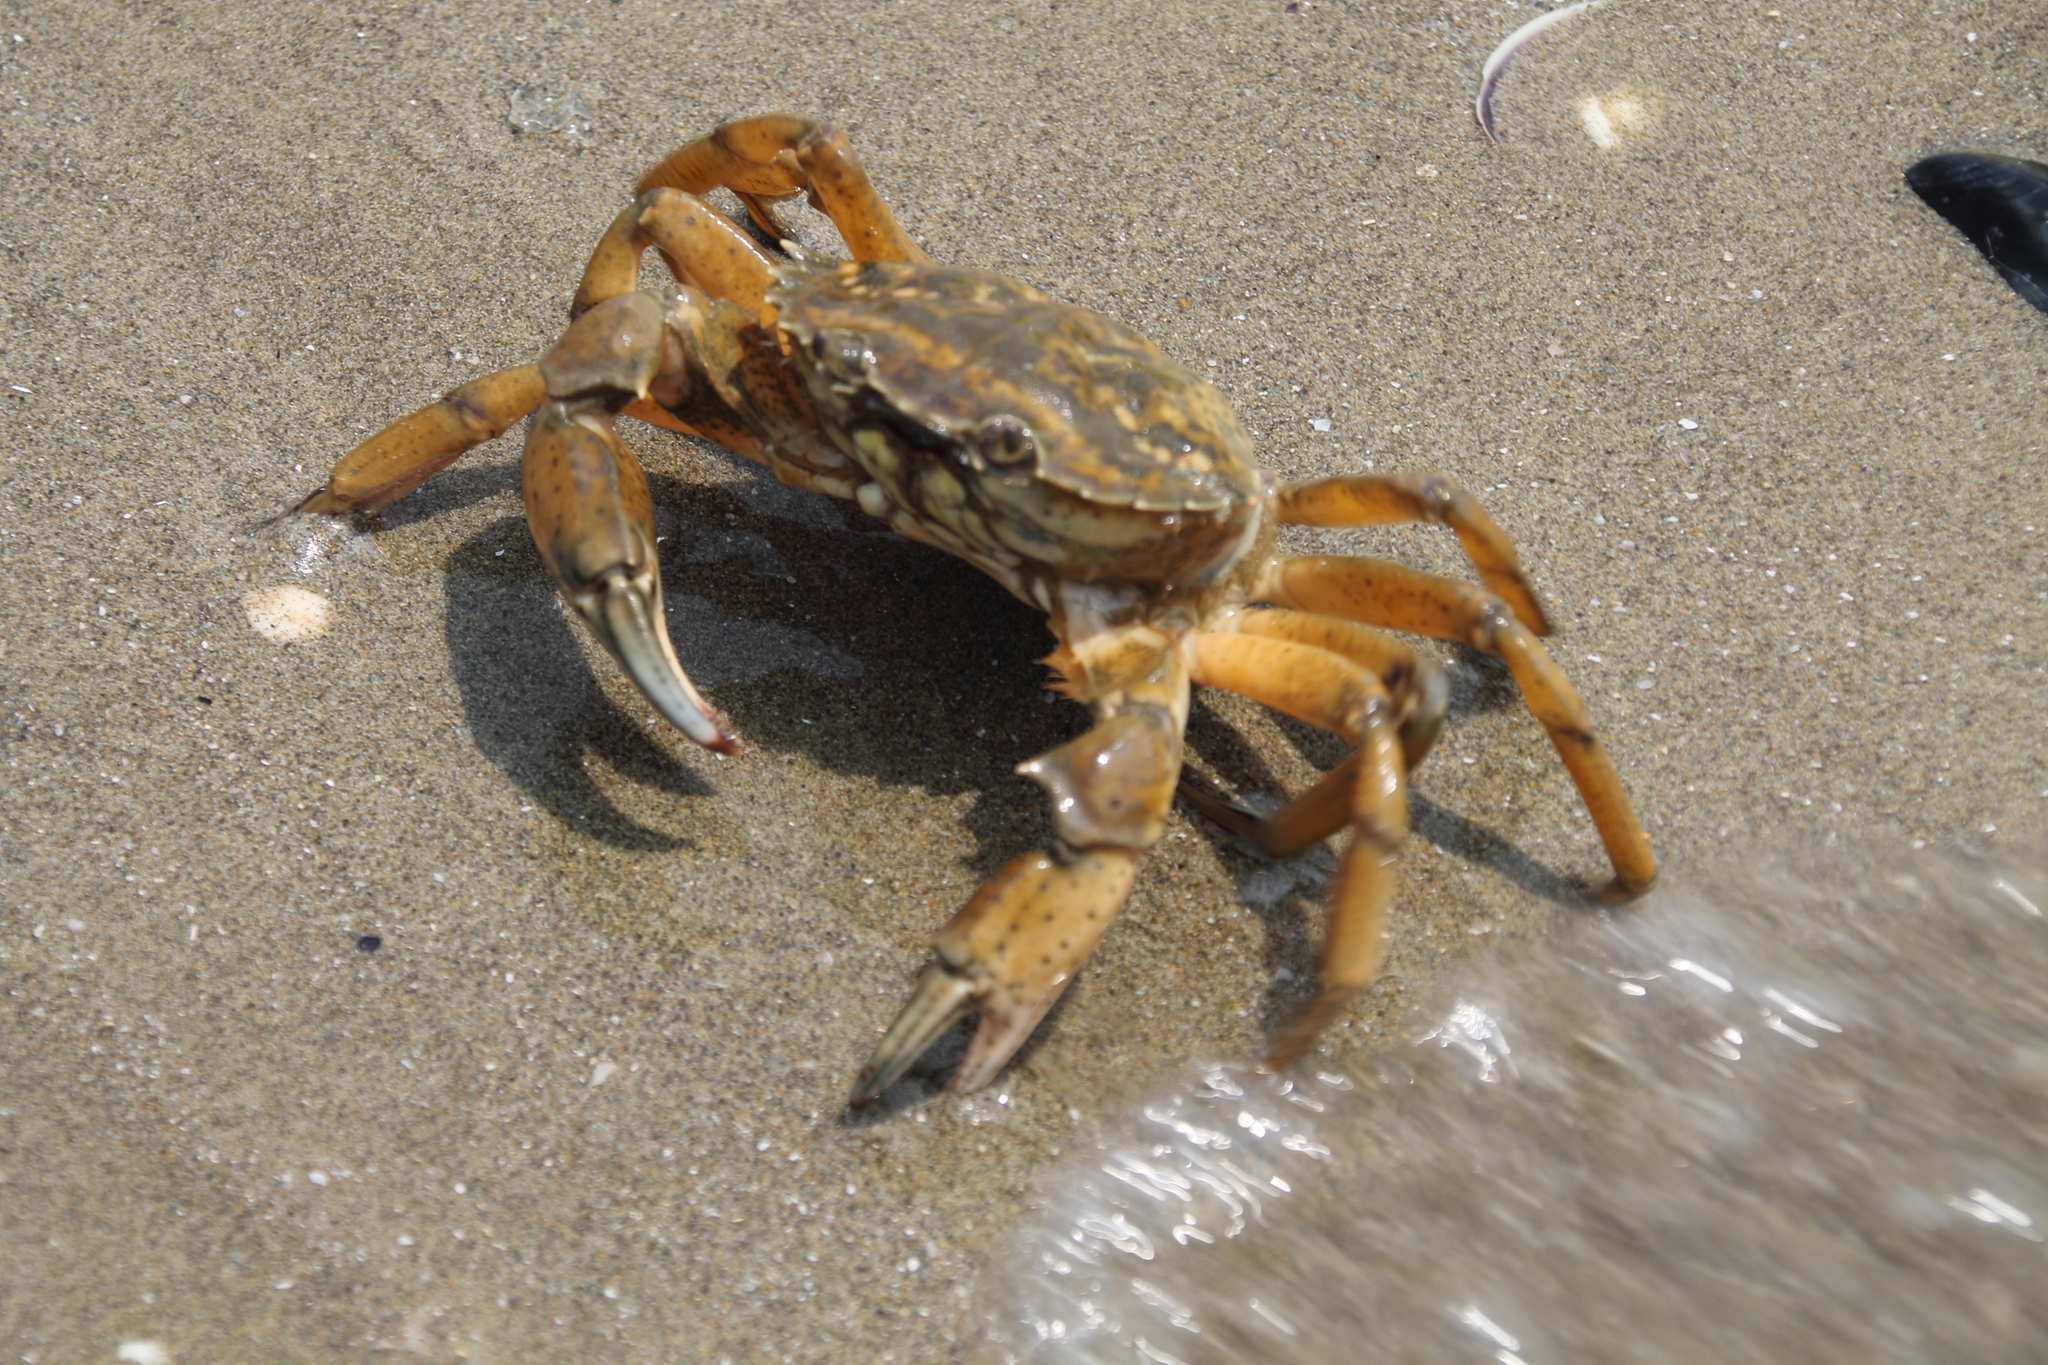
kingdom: Animalia
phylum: Arthropoda
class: Malacostraca
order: Decapoda
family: Carcinidae
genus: Carcinus
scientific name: Carcinus aestuarii
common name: Mediterranean green crab
